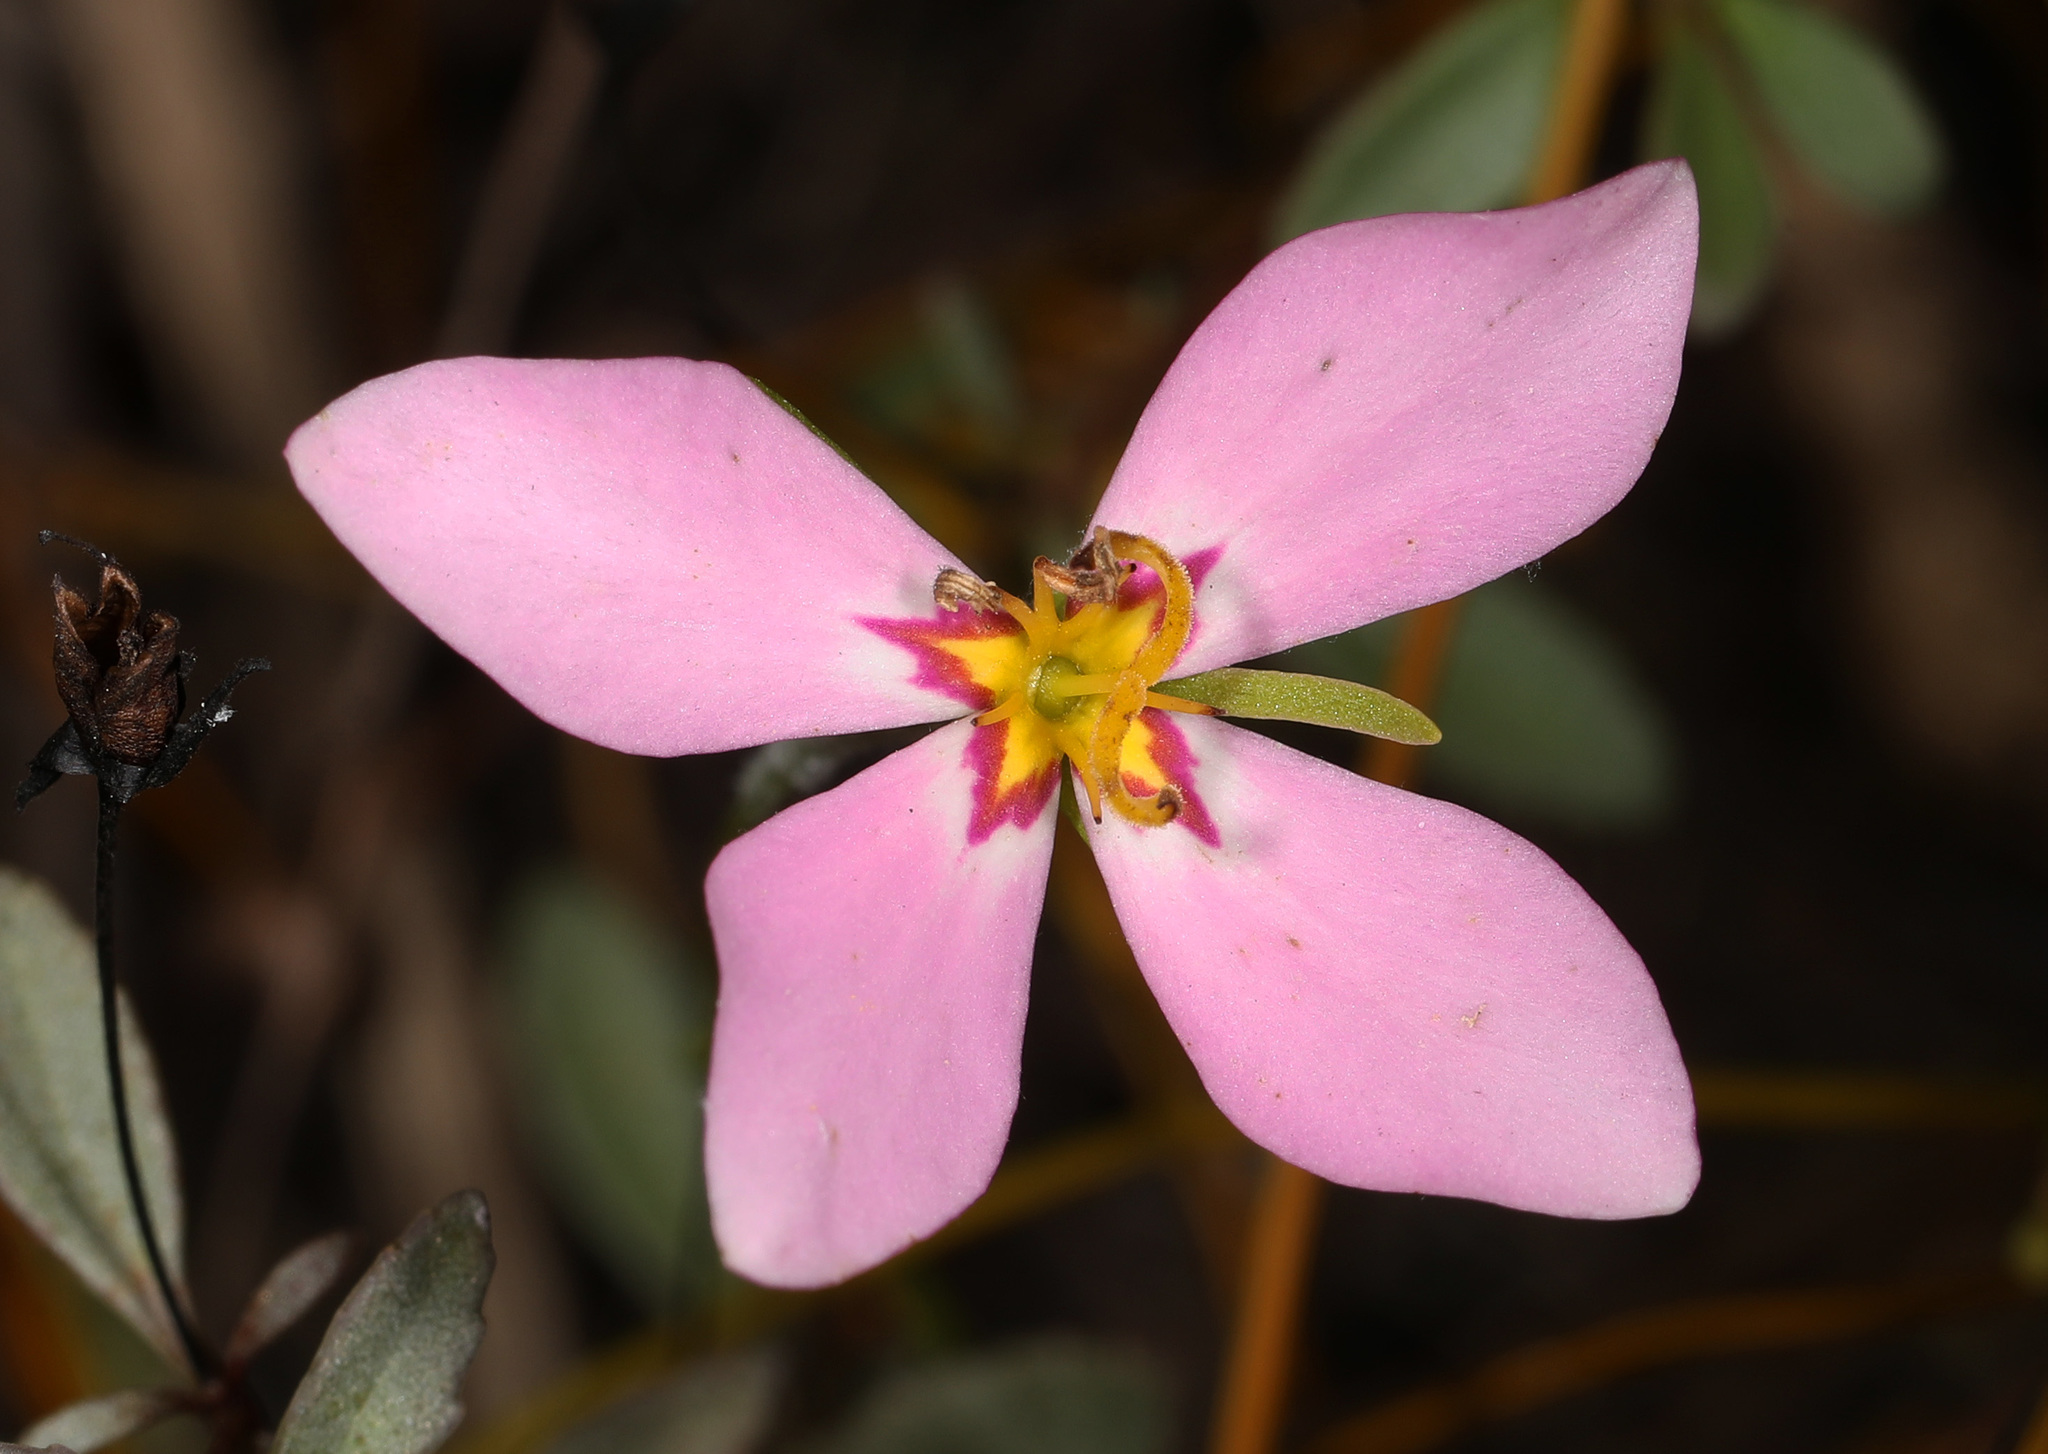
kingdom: Plantae
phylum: Tracheophyta
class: Magnoliopsida
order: Gentianales
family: Gentianaceae
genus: Sabatia
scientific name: Sabatia stellaris
